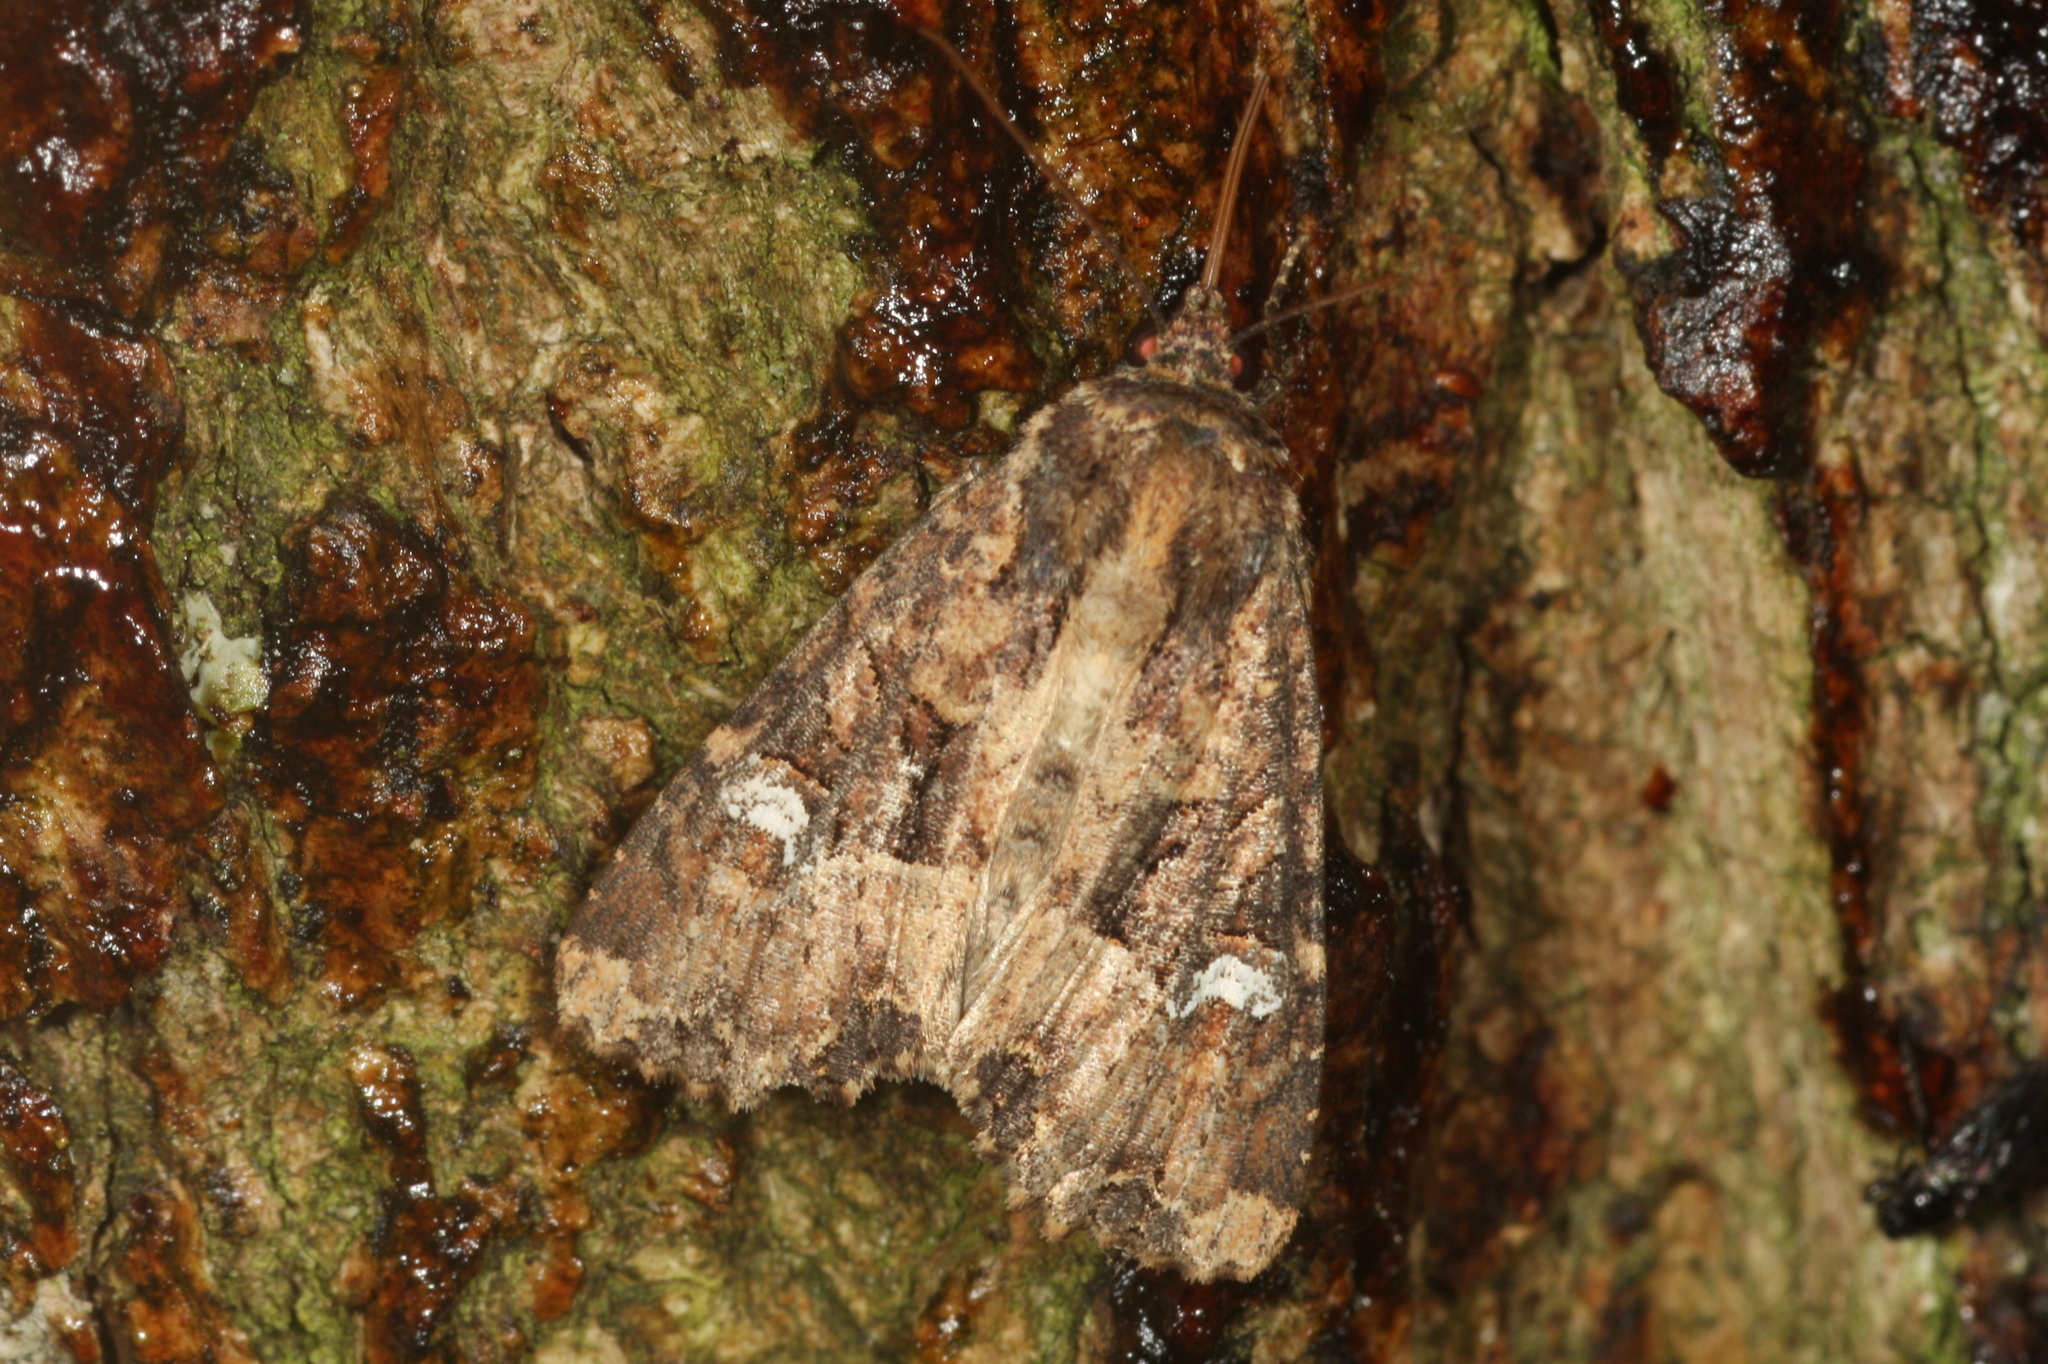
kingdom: Animalia
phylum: Arthropoda
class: Insecta
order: Lepidoptera
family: Noctuidae
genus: Mesapamea
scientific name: Mesapamea
